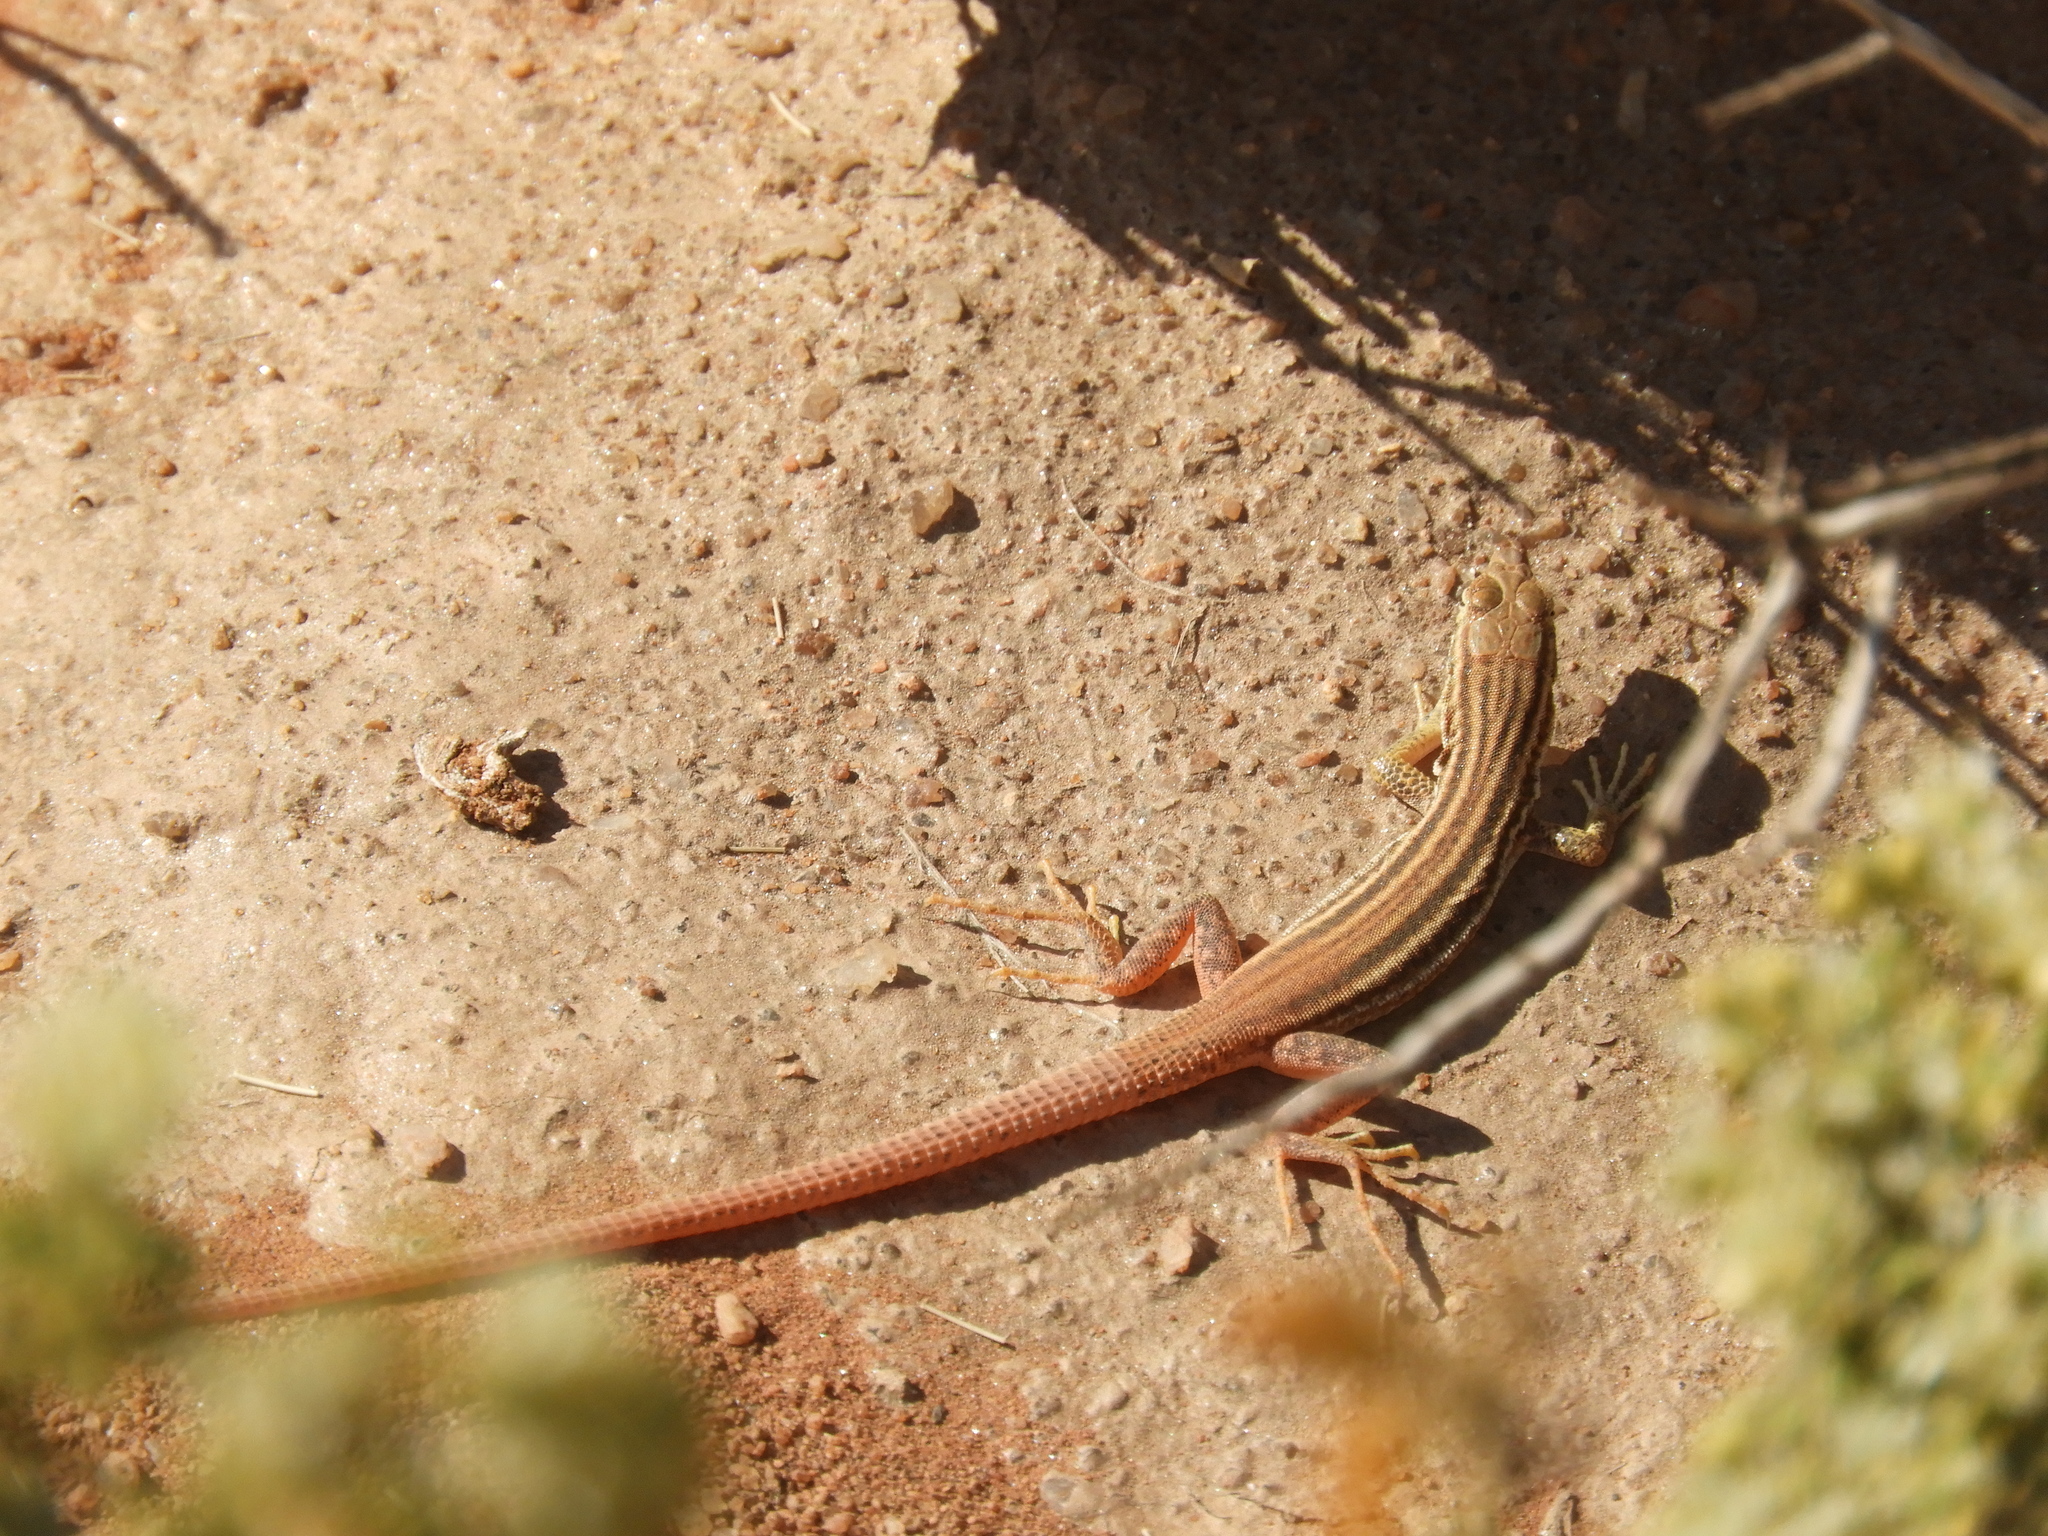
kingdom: Animalia
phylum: Chordata
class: Squamata
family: Lacertidae
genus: Pedioplanis
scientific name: Pedioplanis namaquensis
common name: Namaqua sand lizard
